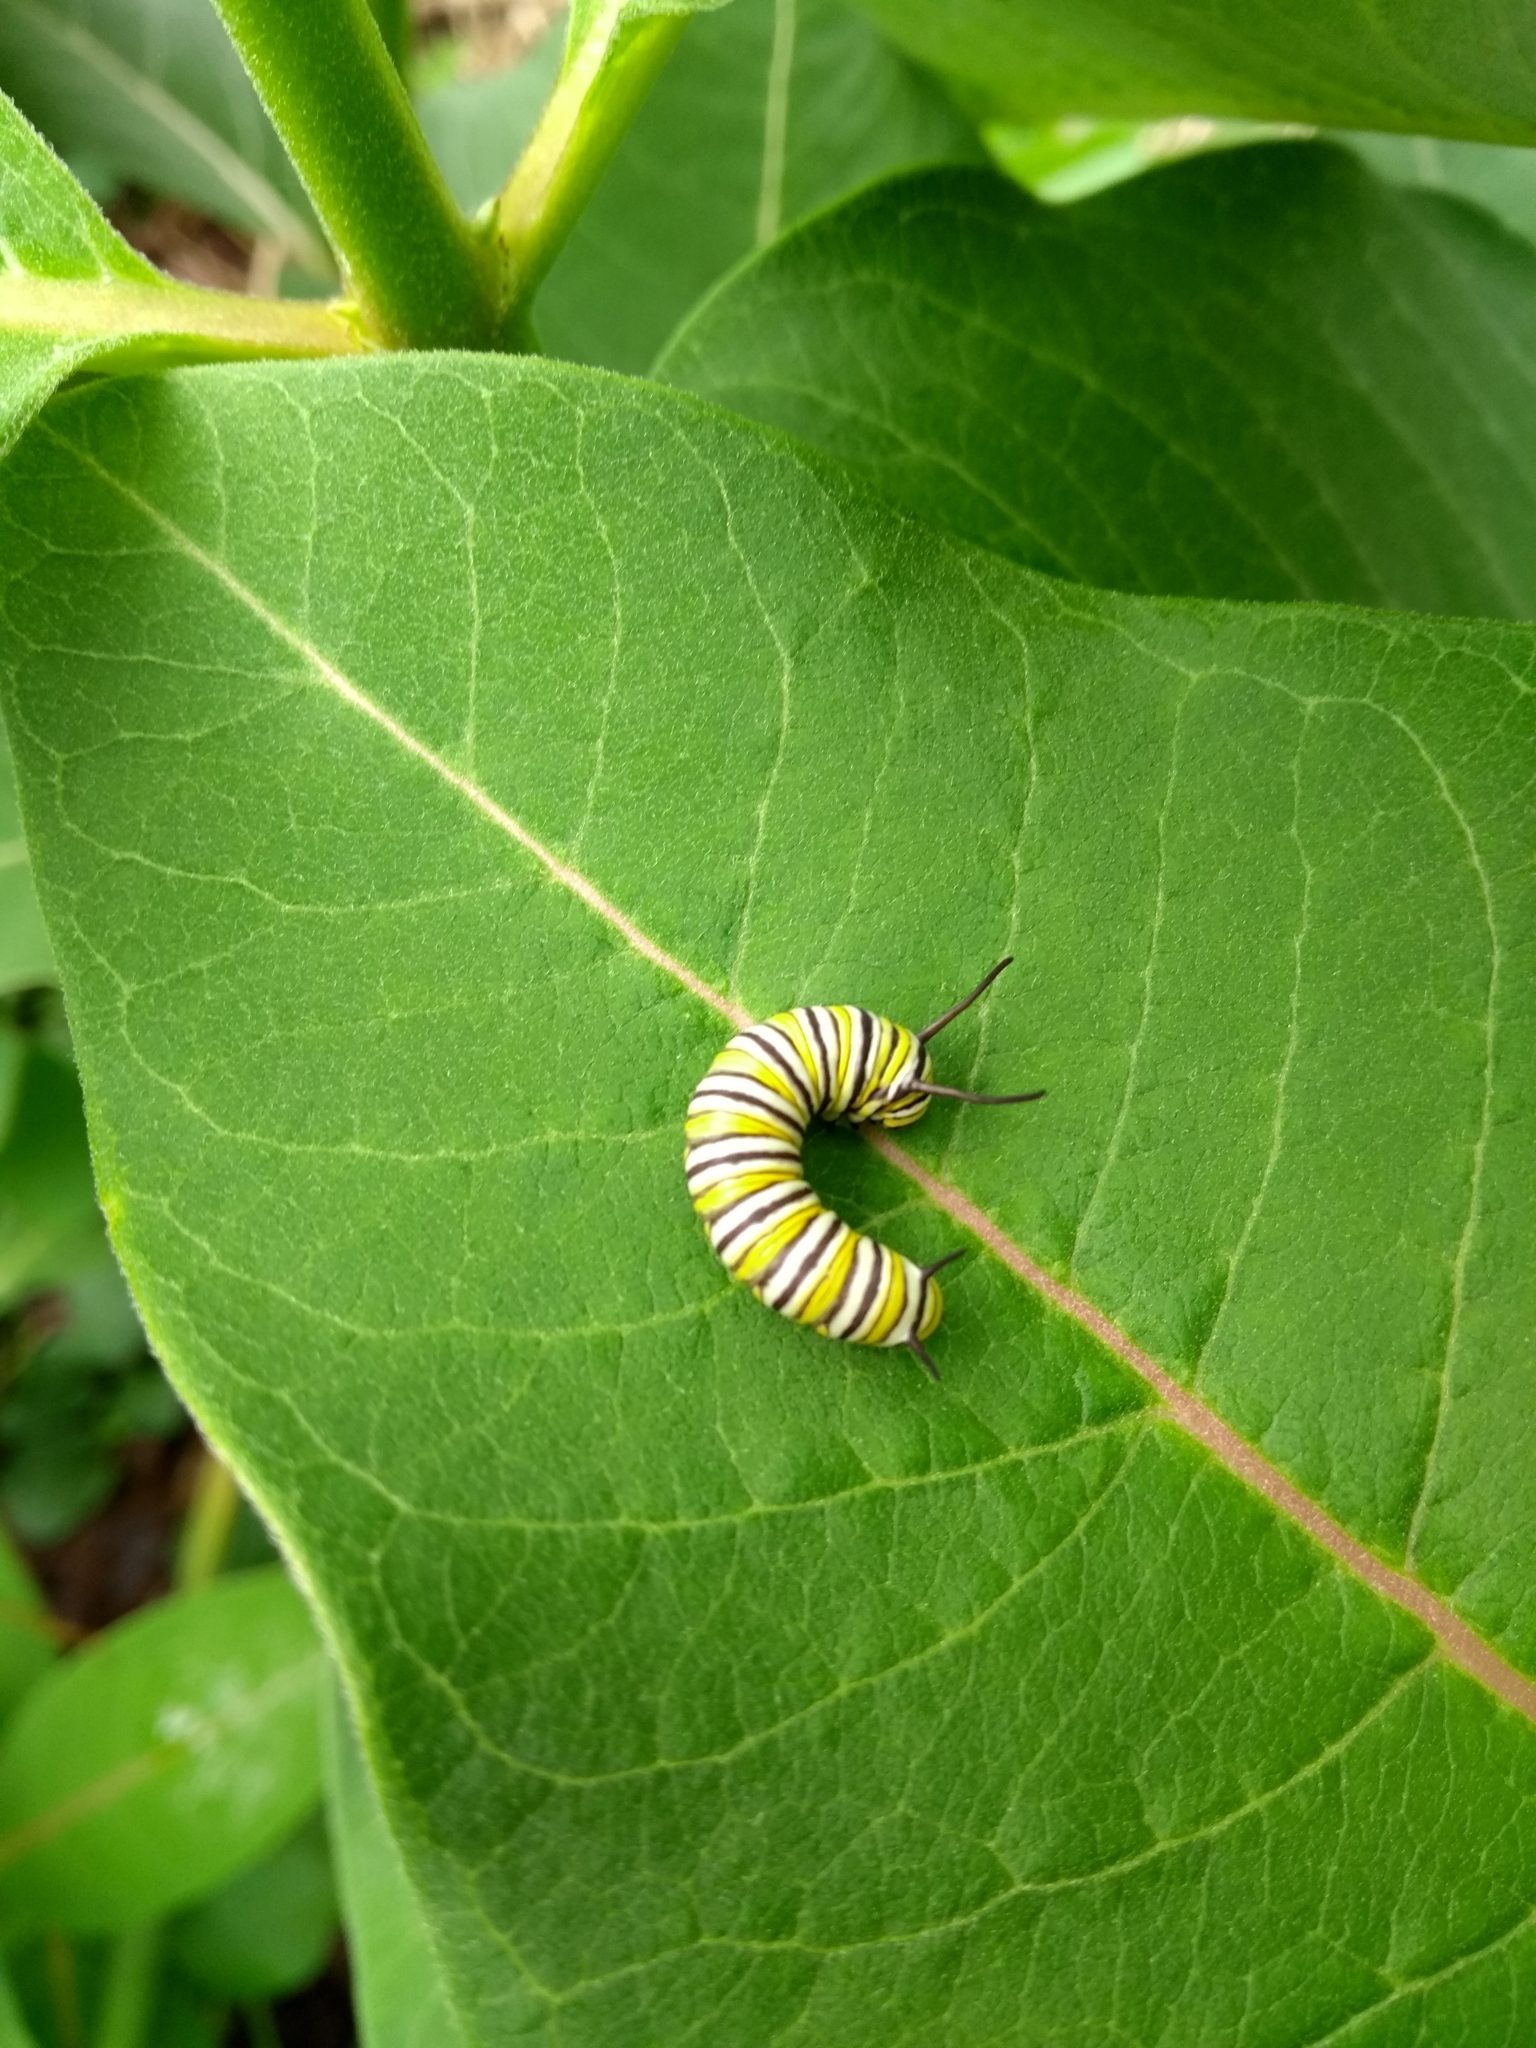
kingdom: Animalia
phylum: Arthropoda
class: Insecta
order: Lepidoptera
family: Nymphalidae
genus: Danaus
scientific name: Danaus plexippus
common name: Monarch
